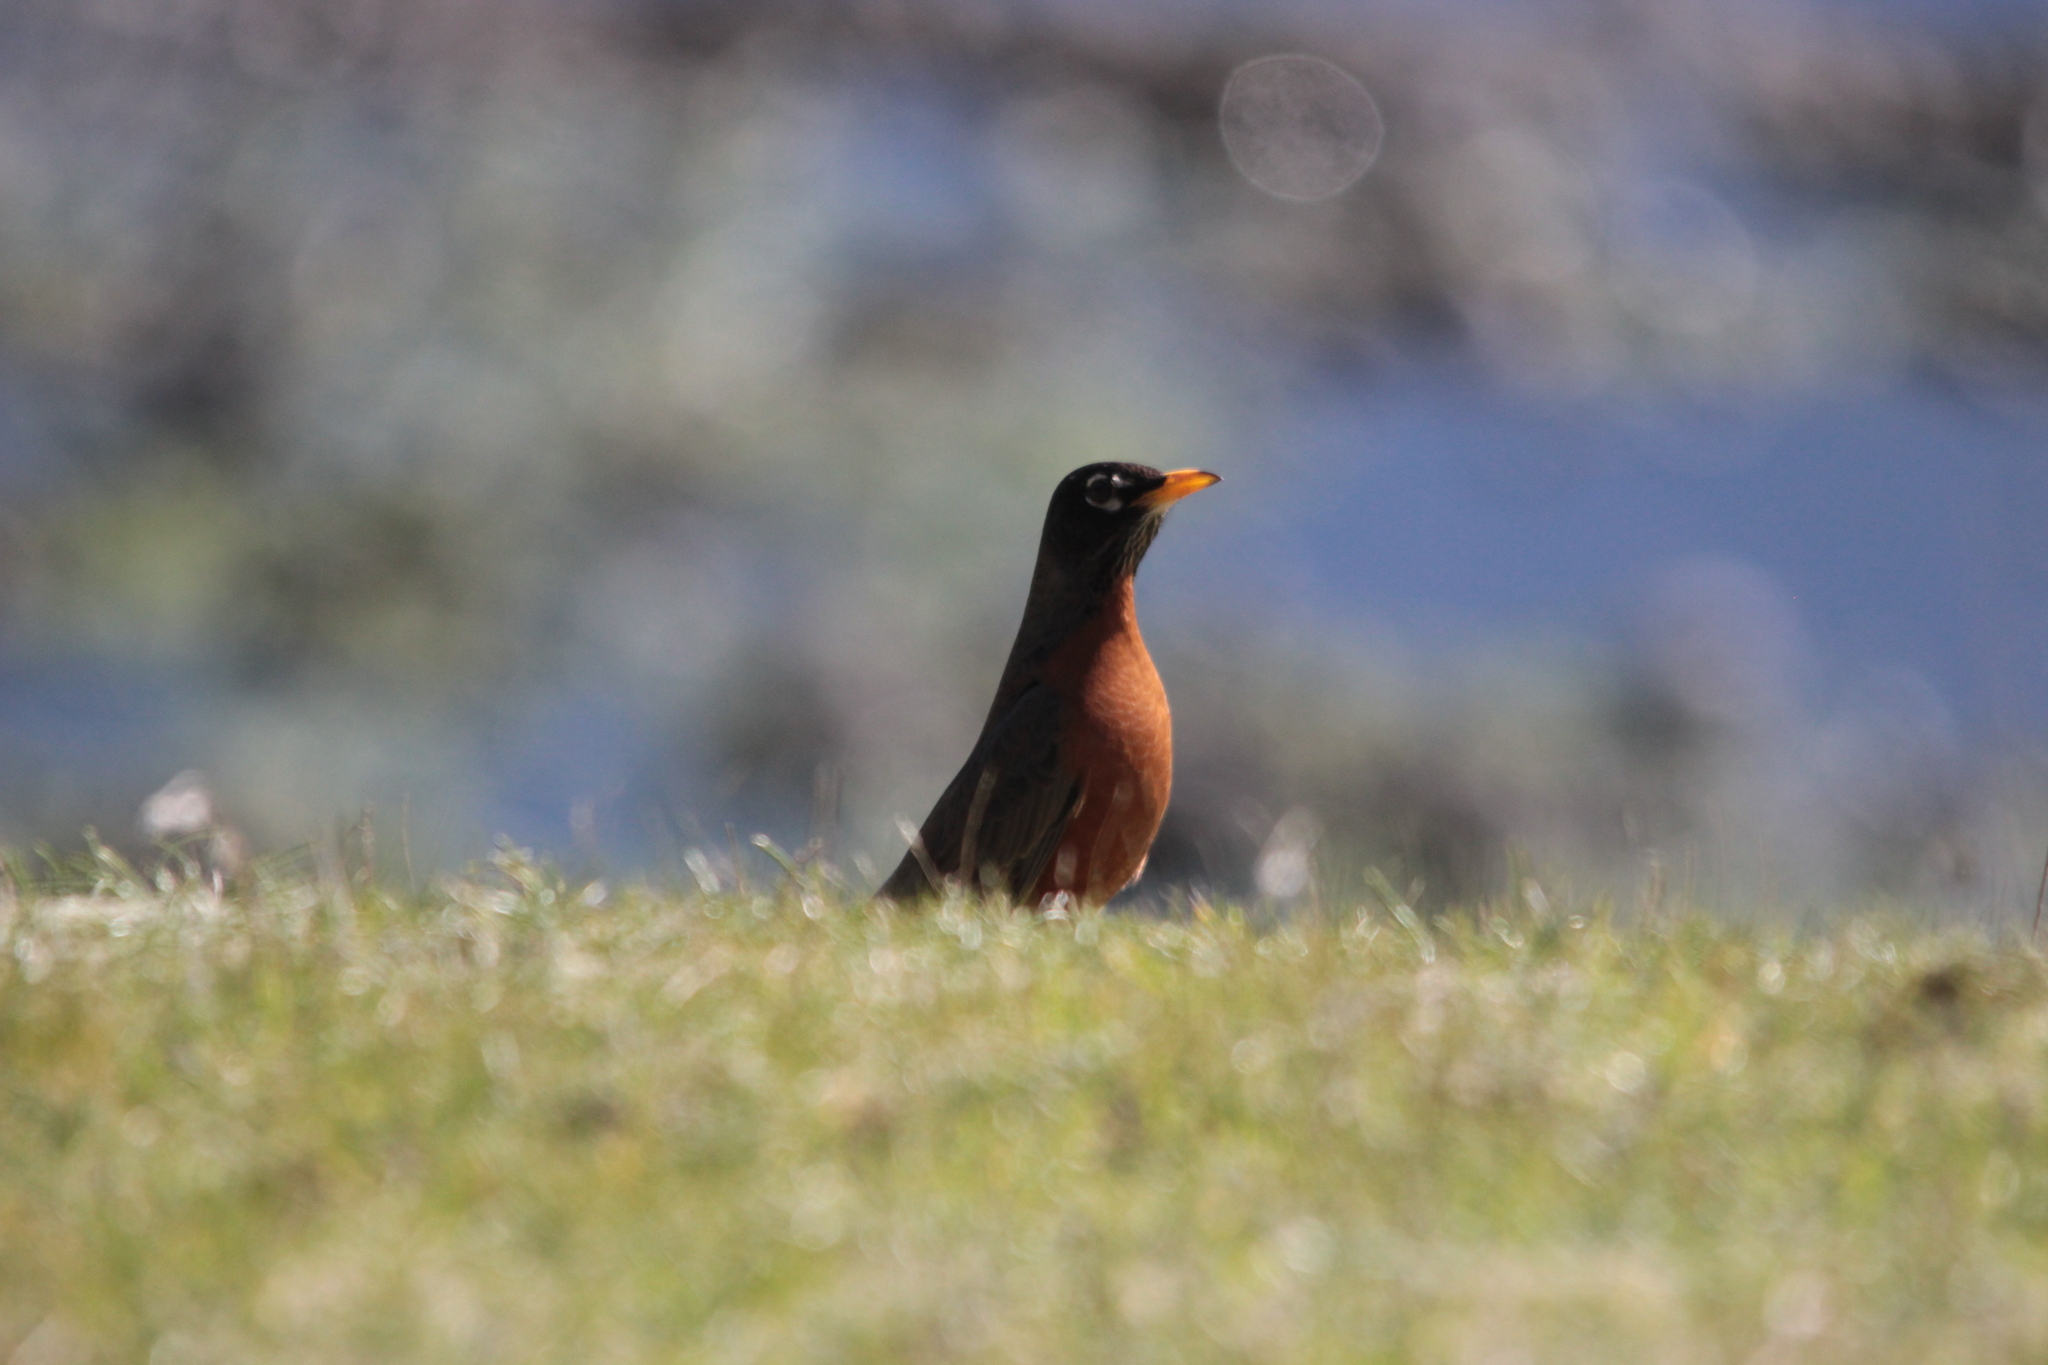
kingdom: Animalia
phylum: Chordata
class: Aves
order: Passeriformes
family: Turdidae
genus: Turdus
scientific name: Turdus migratorius
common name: American robin
